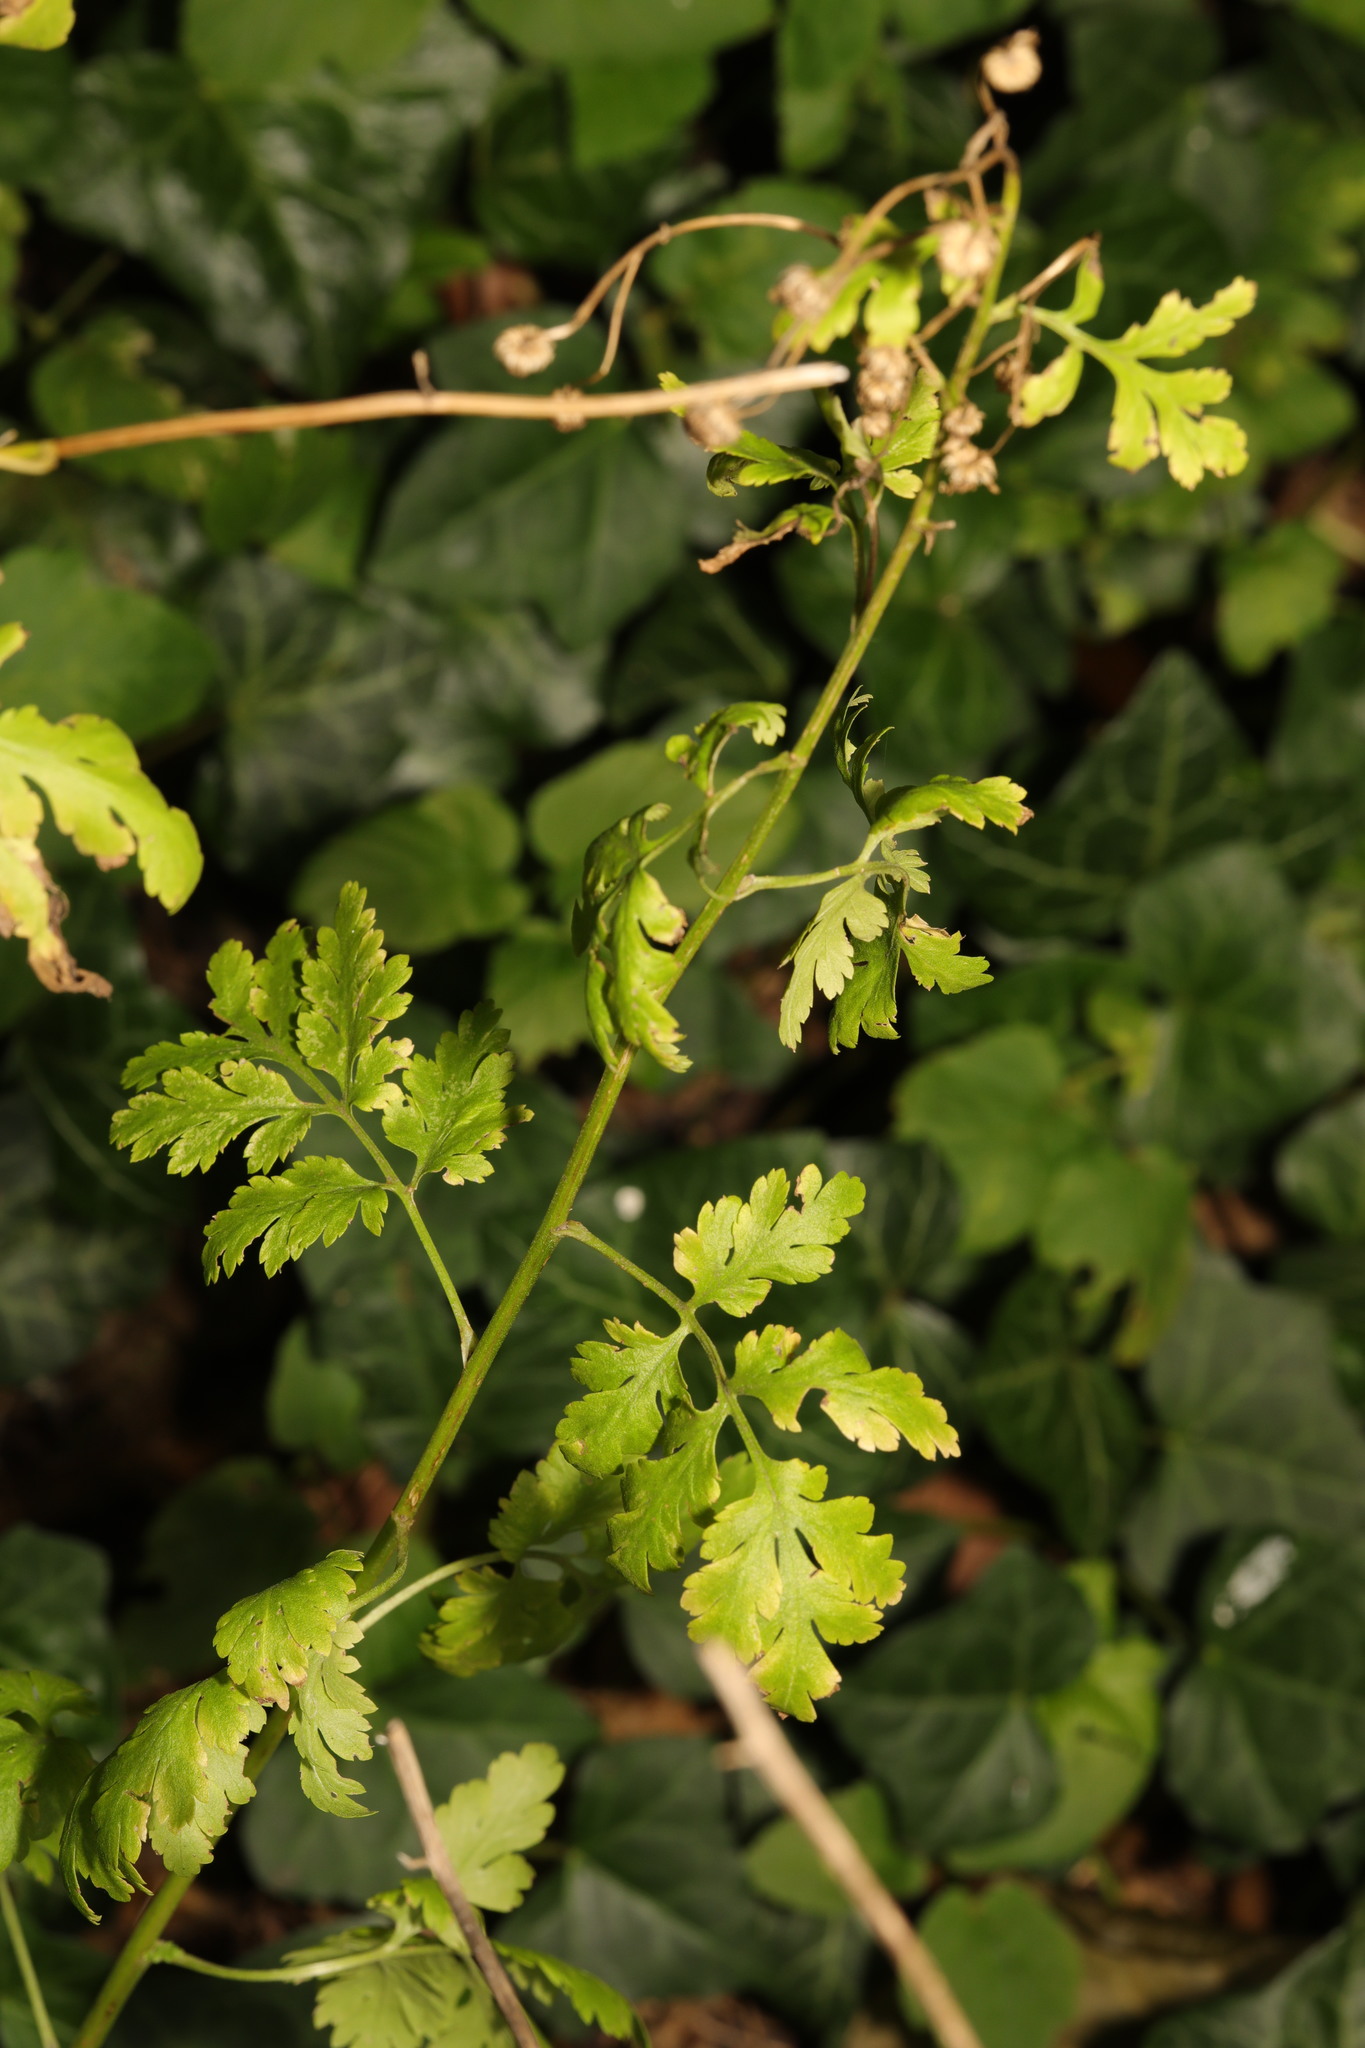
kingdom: Plantae
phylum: Tracheophyta
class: Magnoliopsida
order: Asterales
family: Asteraceae
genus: Tanacetum
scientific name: Tanacetum parthenium
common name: Feverfew
